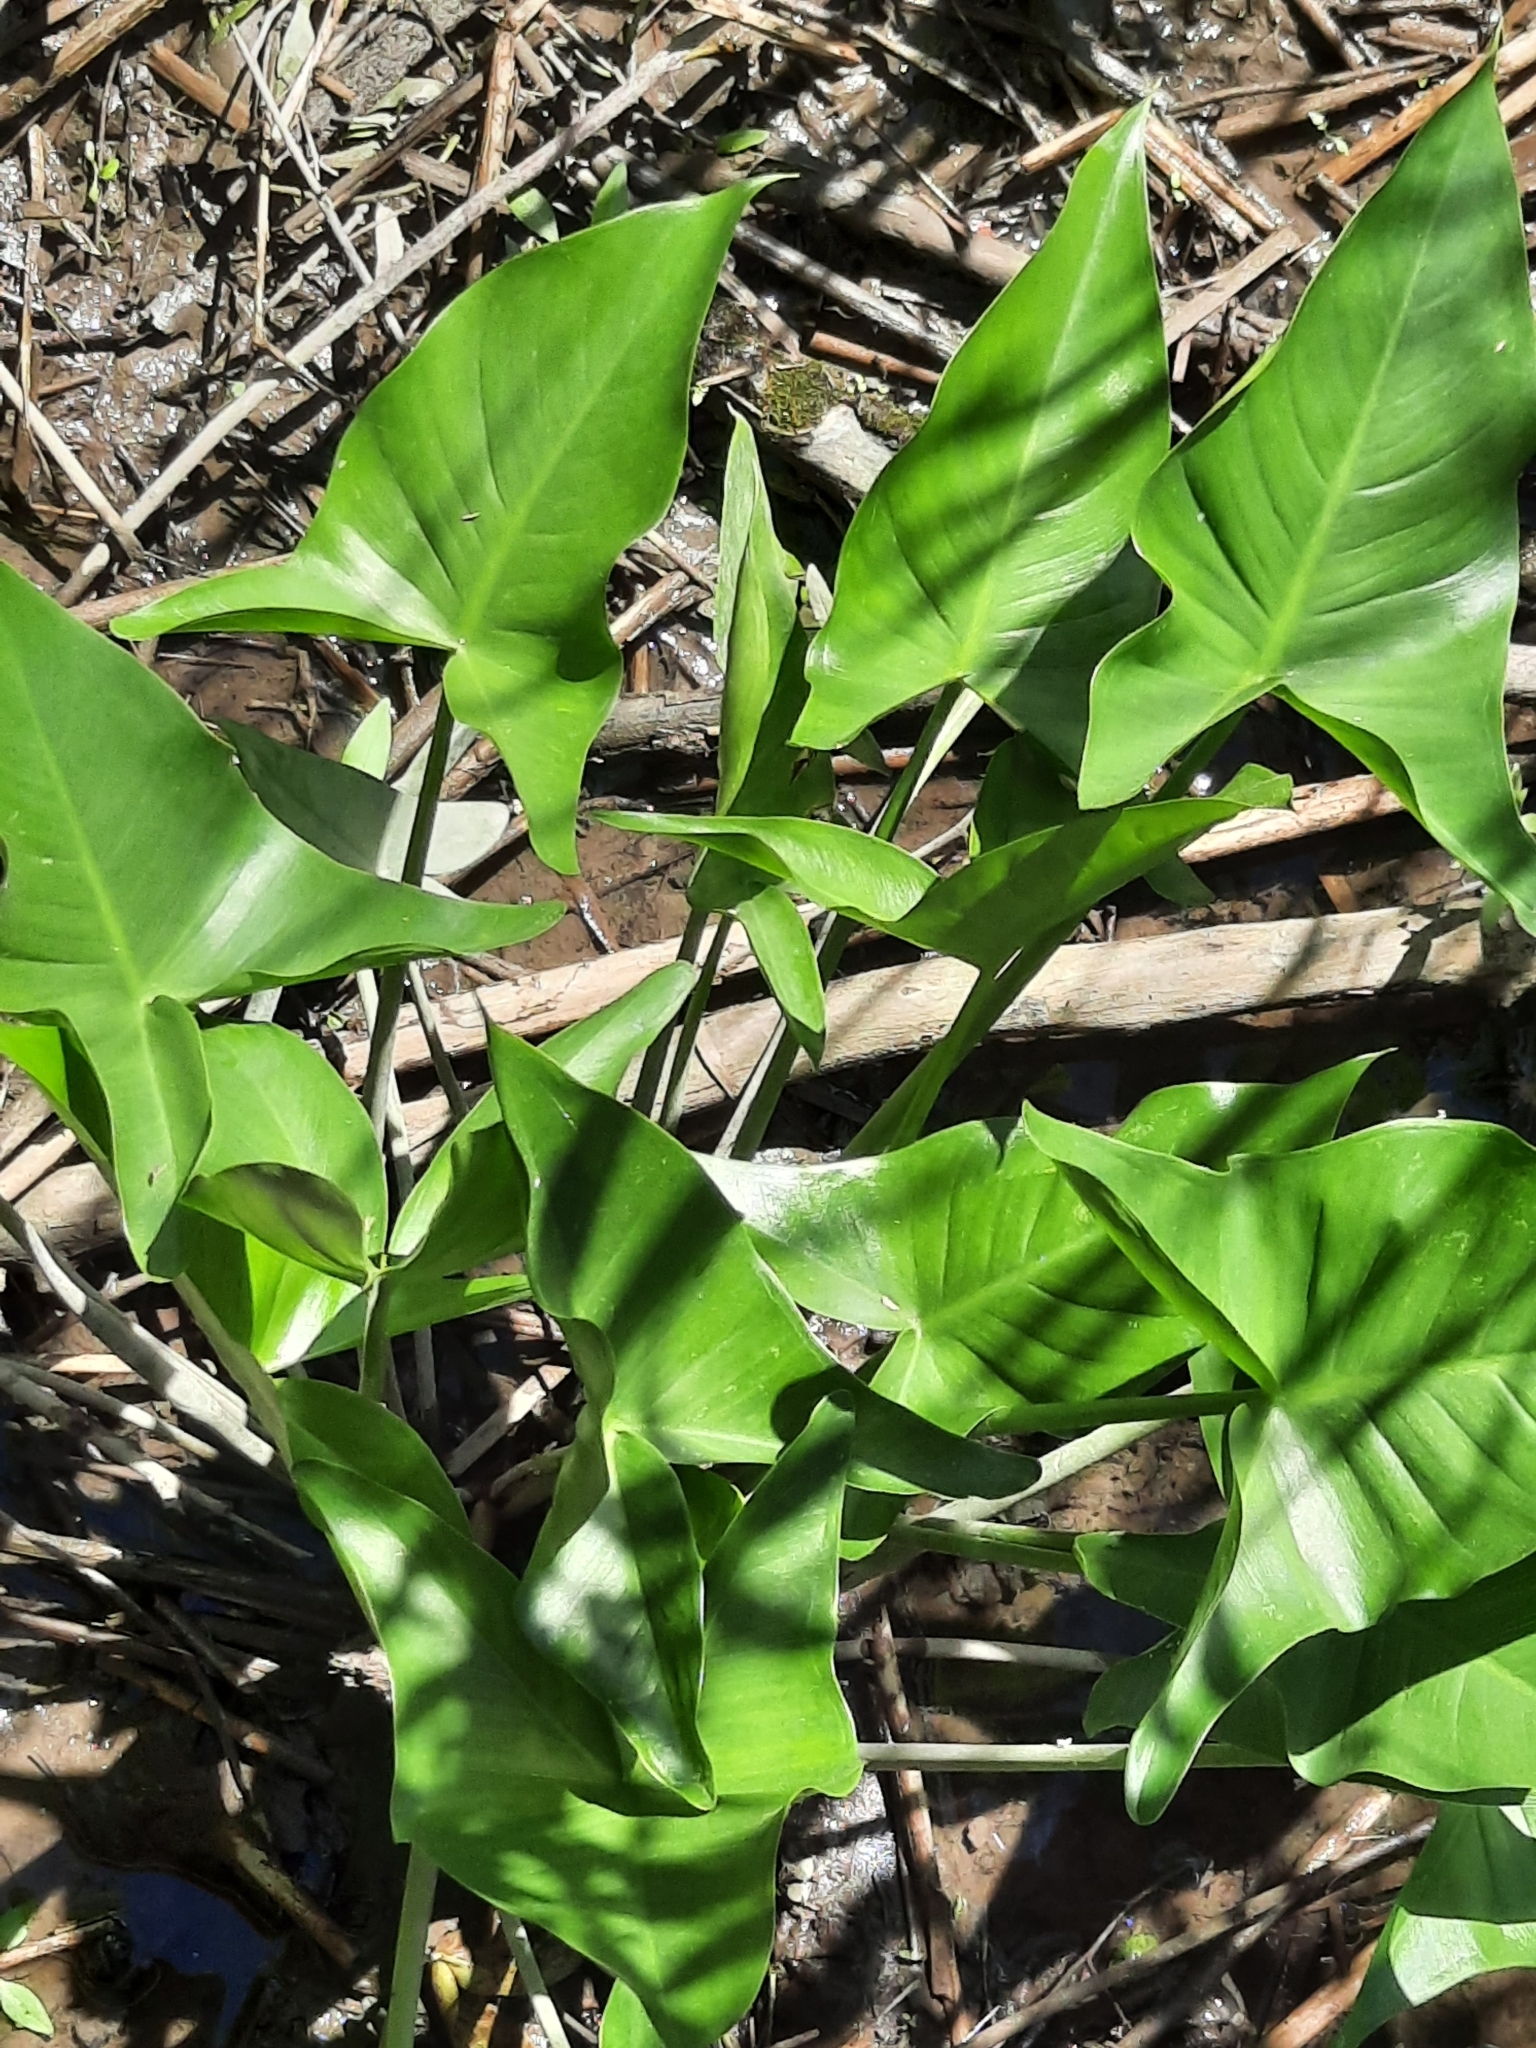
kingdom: Plantae
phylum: Tracheophyta
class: Liliopsida
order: Alismatales
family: Araceae
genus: Peltandra
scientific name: Peltandra virginica
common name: Arrow arum
